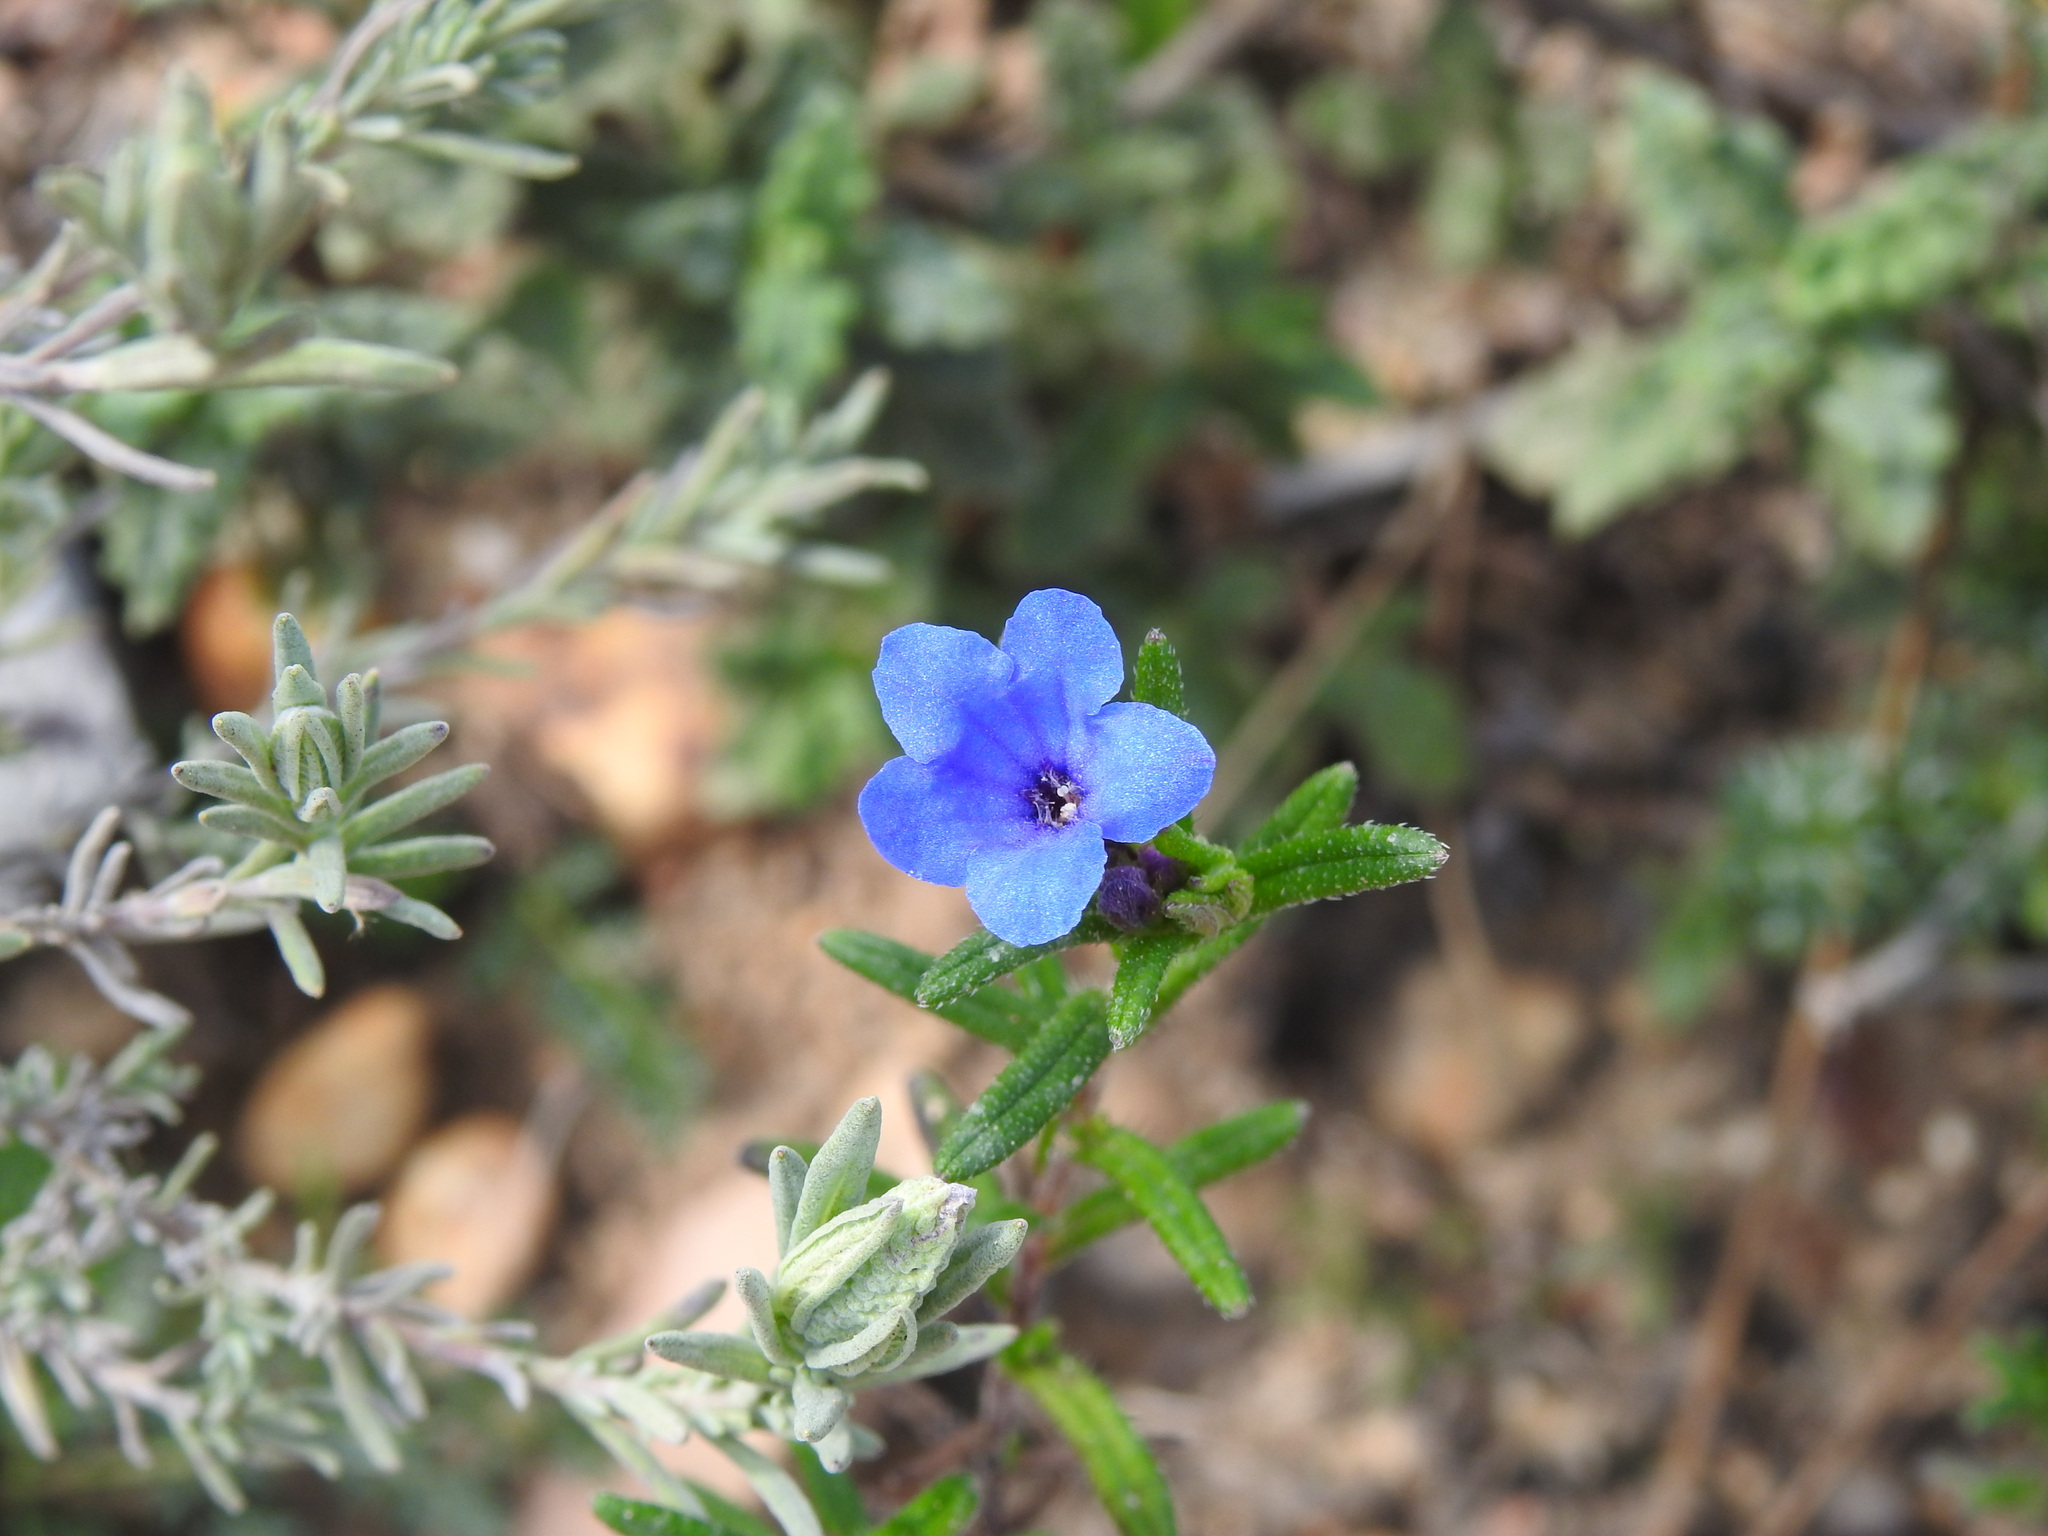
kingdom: Plantae
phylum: Tracheophyta
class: Magnoliopsida
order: Boraginales
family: Boraginaceae
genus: Glandora
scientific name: Glandora prostrata
